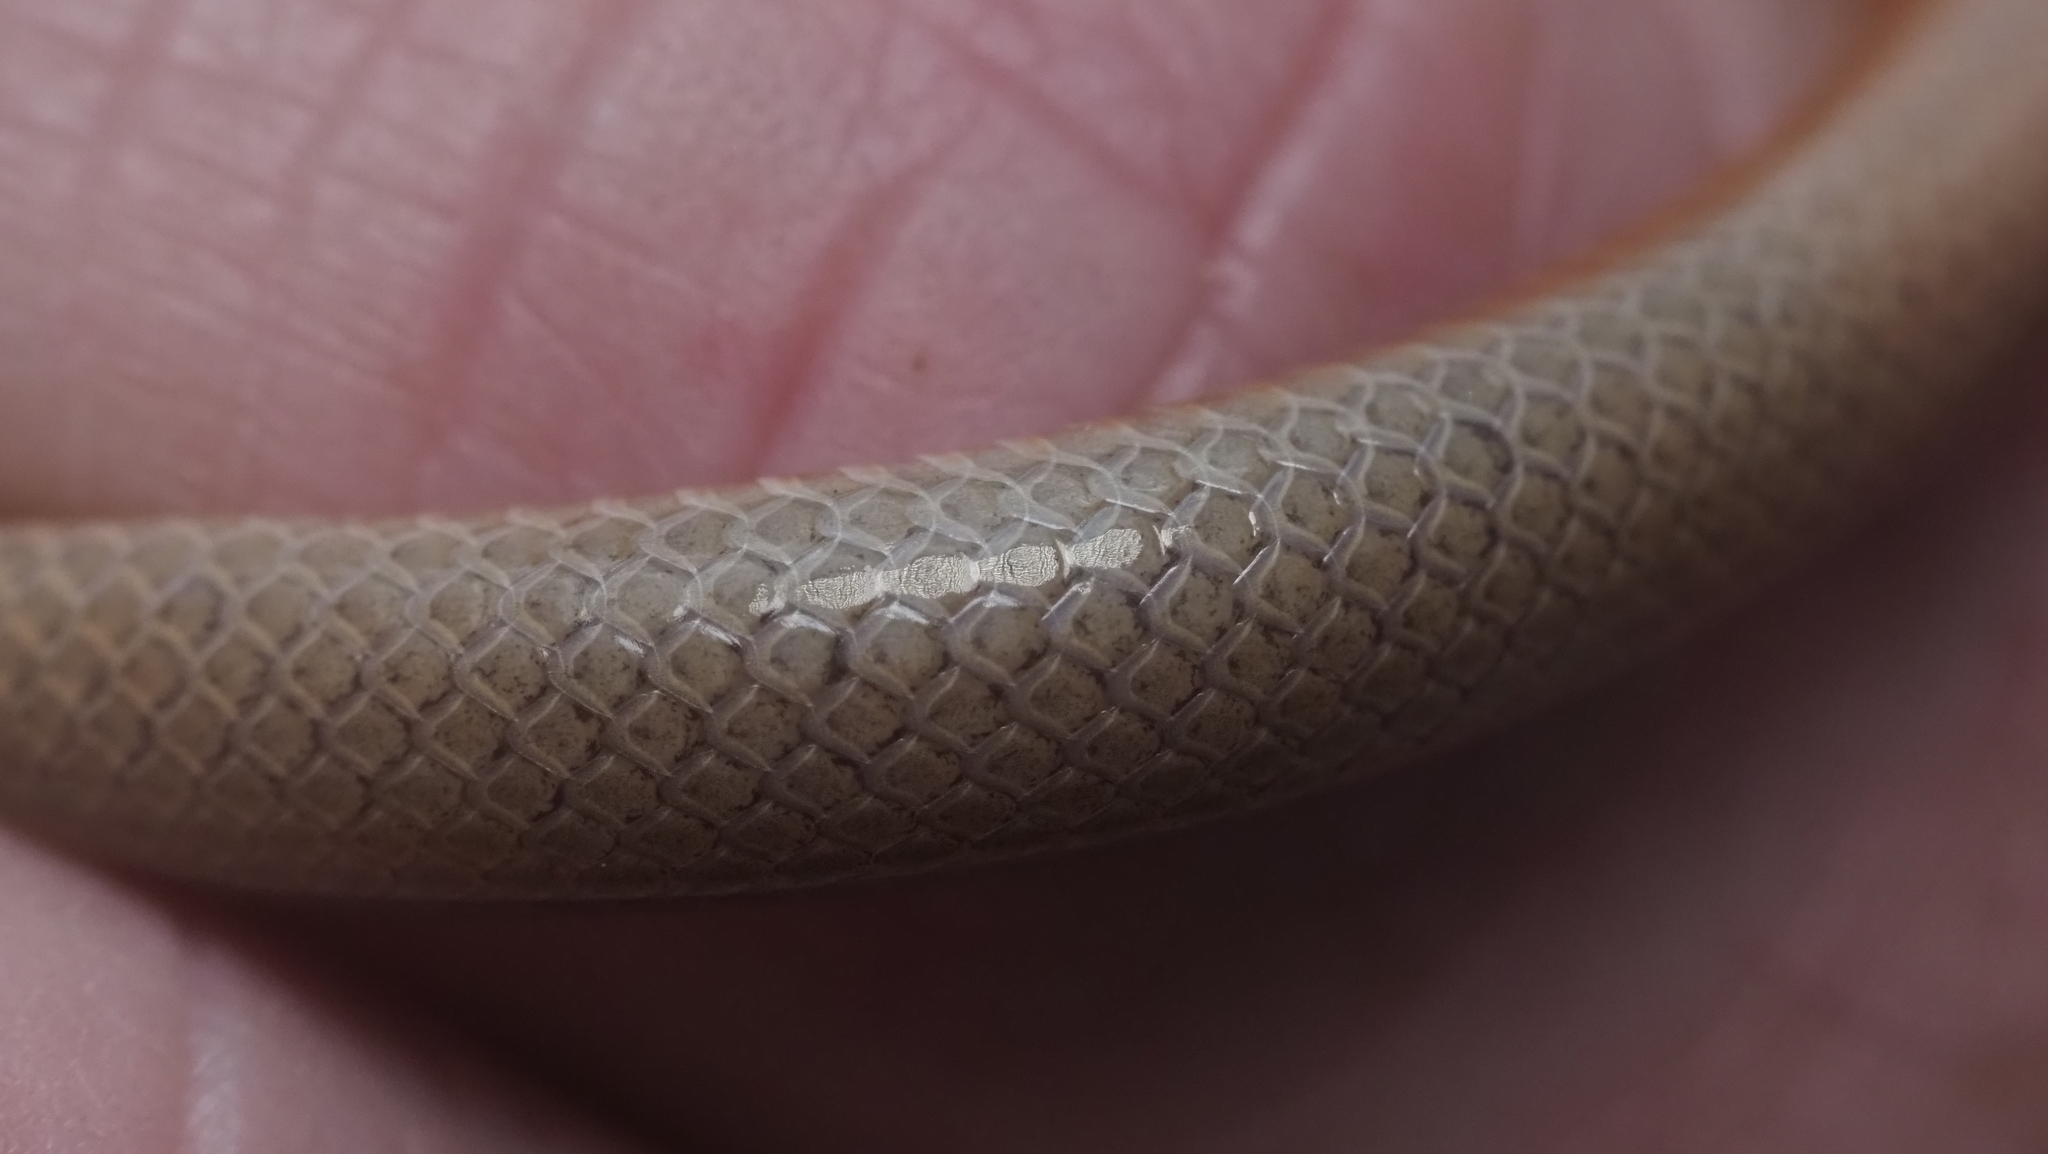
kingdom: Animalia
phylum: Chordata
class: Squamata
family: Colubridae
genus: Tantilla
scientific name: Tantilla gracilis
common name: Flathead snake
